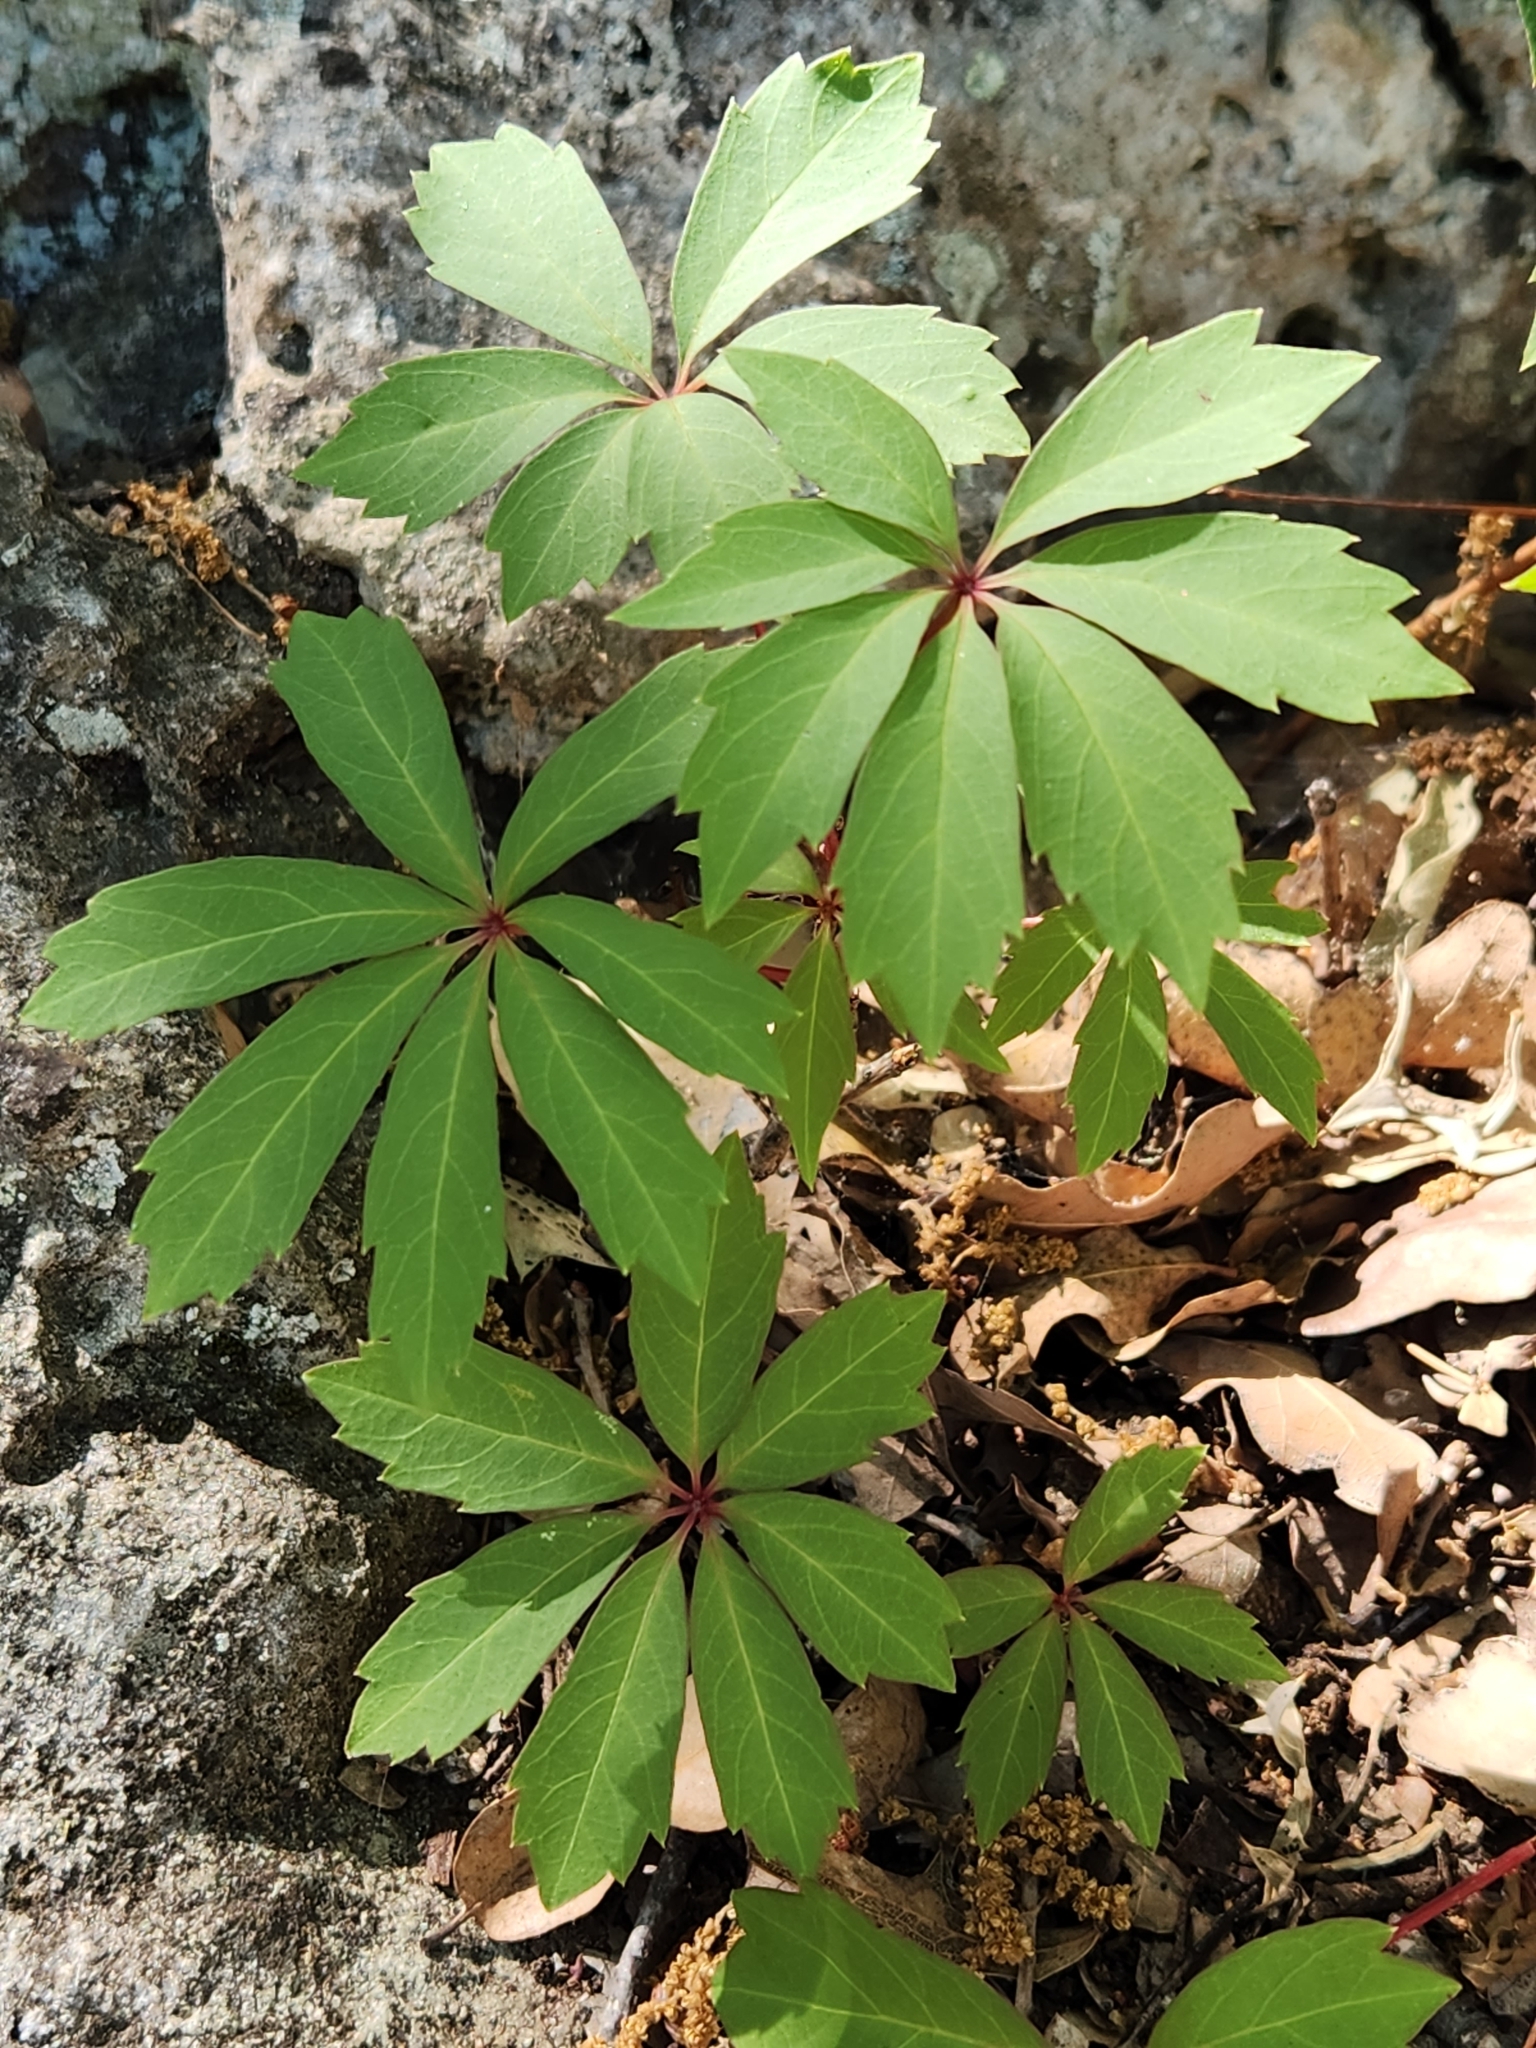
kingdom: Plantae
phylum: Tracheophyta
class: Magnoliopsida
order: Vitales
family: Vitaceae
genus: Parthenocissus
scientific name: Parthenocissus heptaphylla
